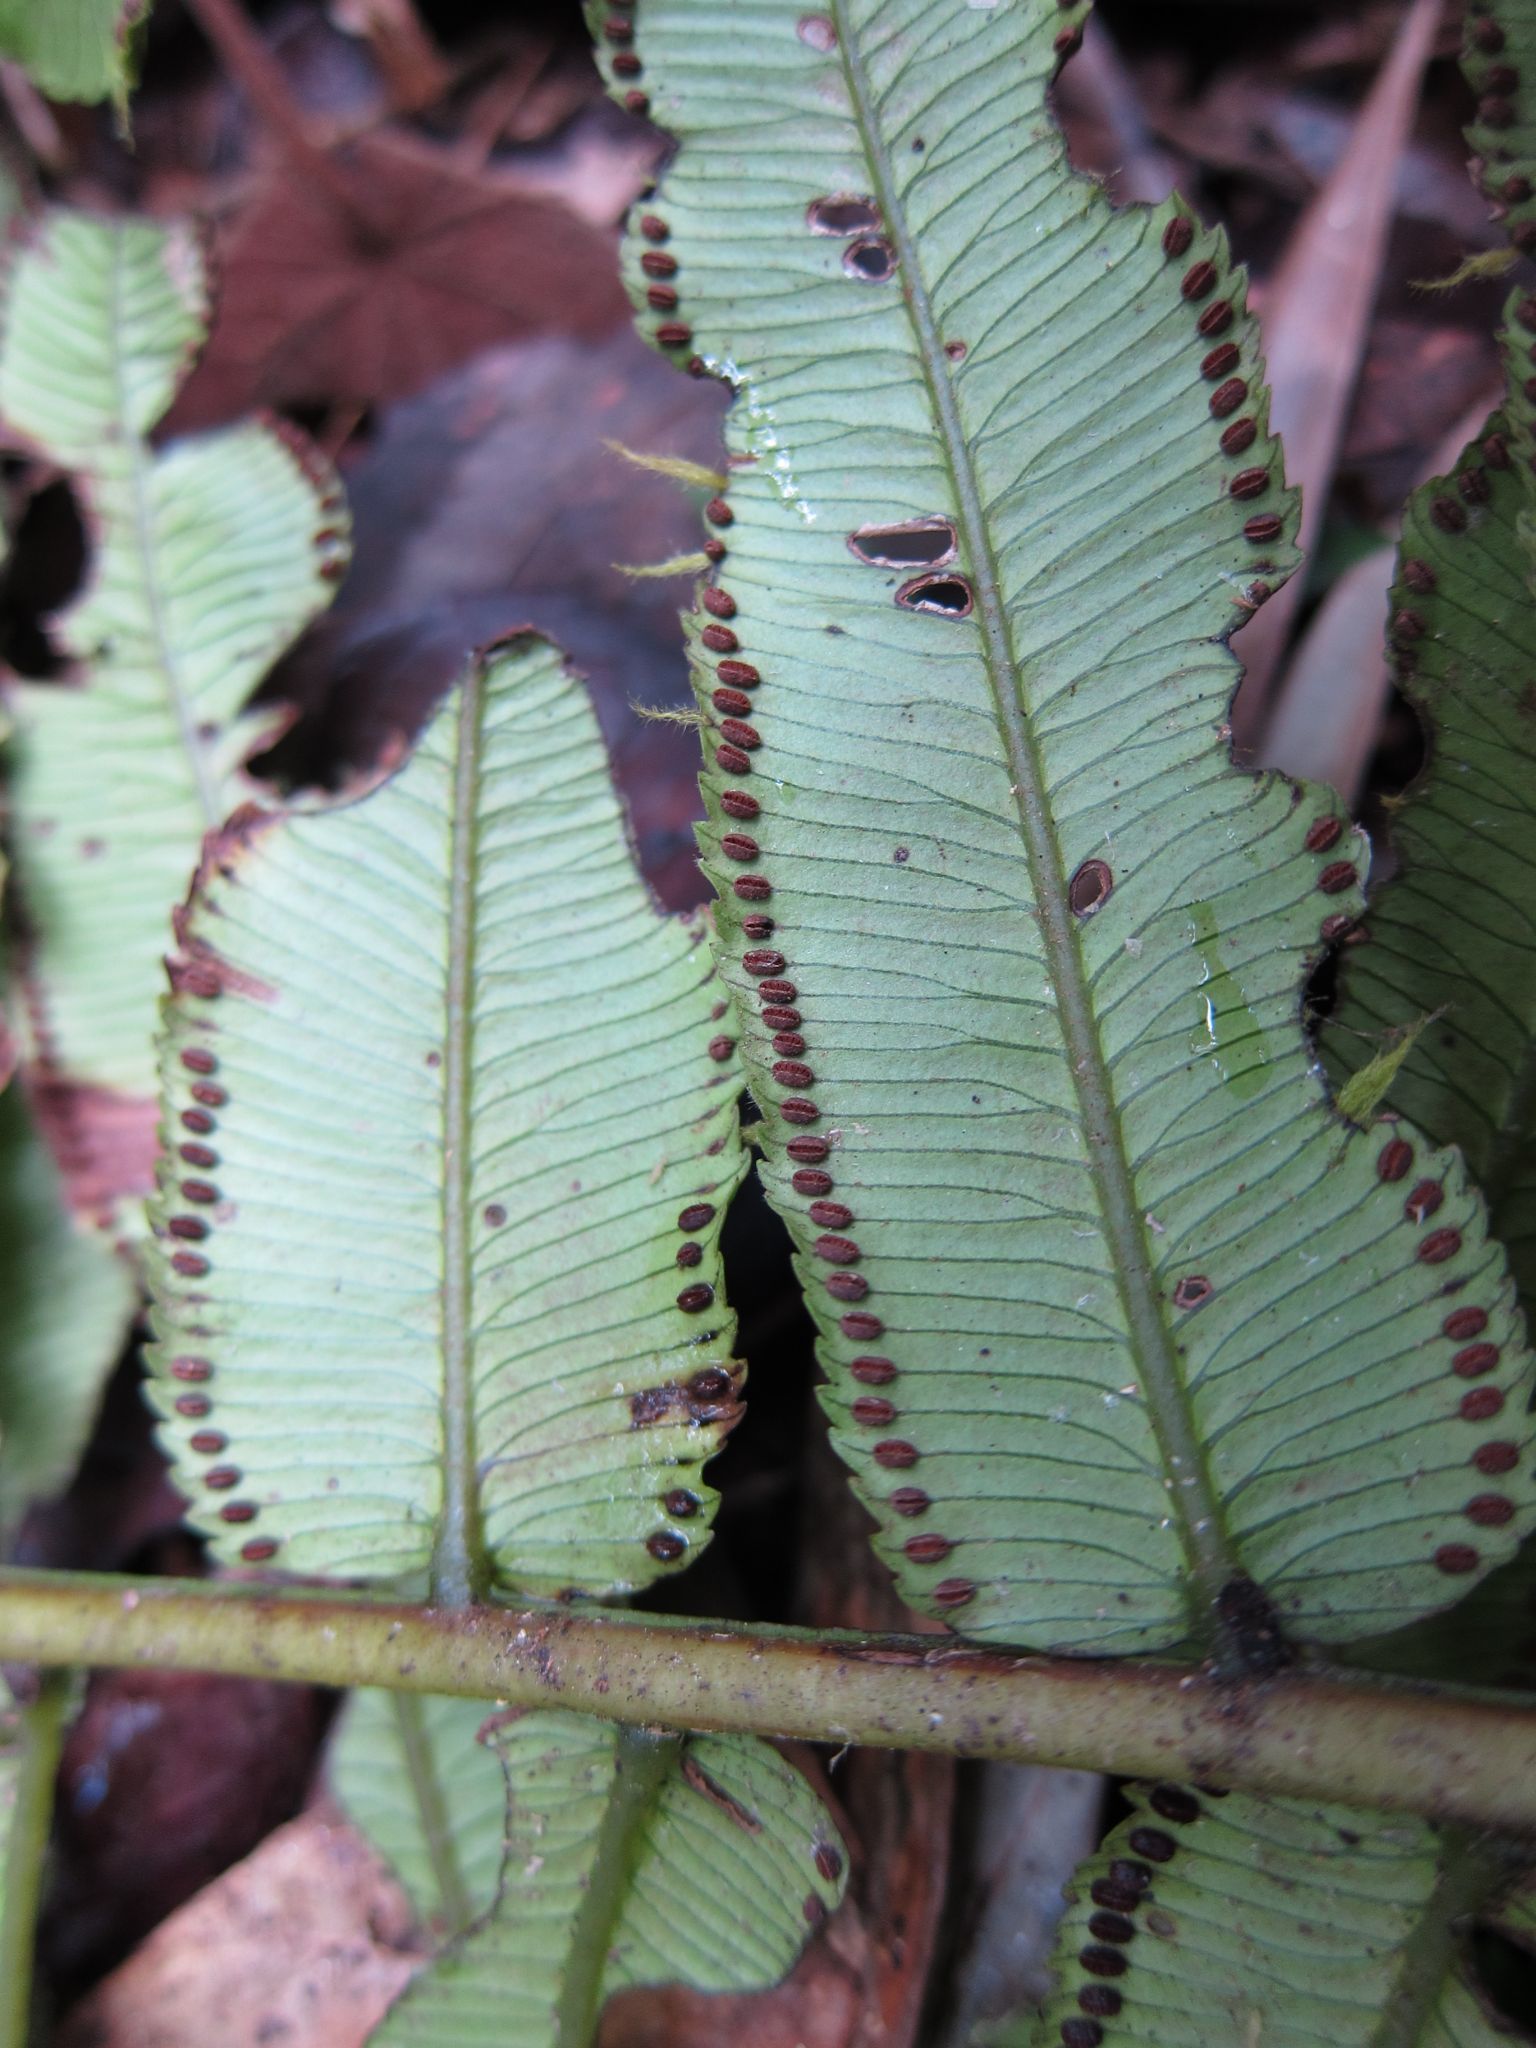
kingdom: Plantae
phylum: Tracheophyta
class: Polypodiopsida
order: Marattiales
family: Marattiaceae
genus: Ptisana
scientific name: Ptisana fraxinea
